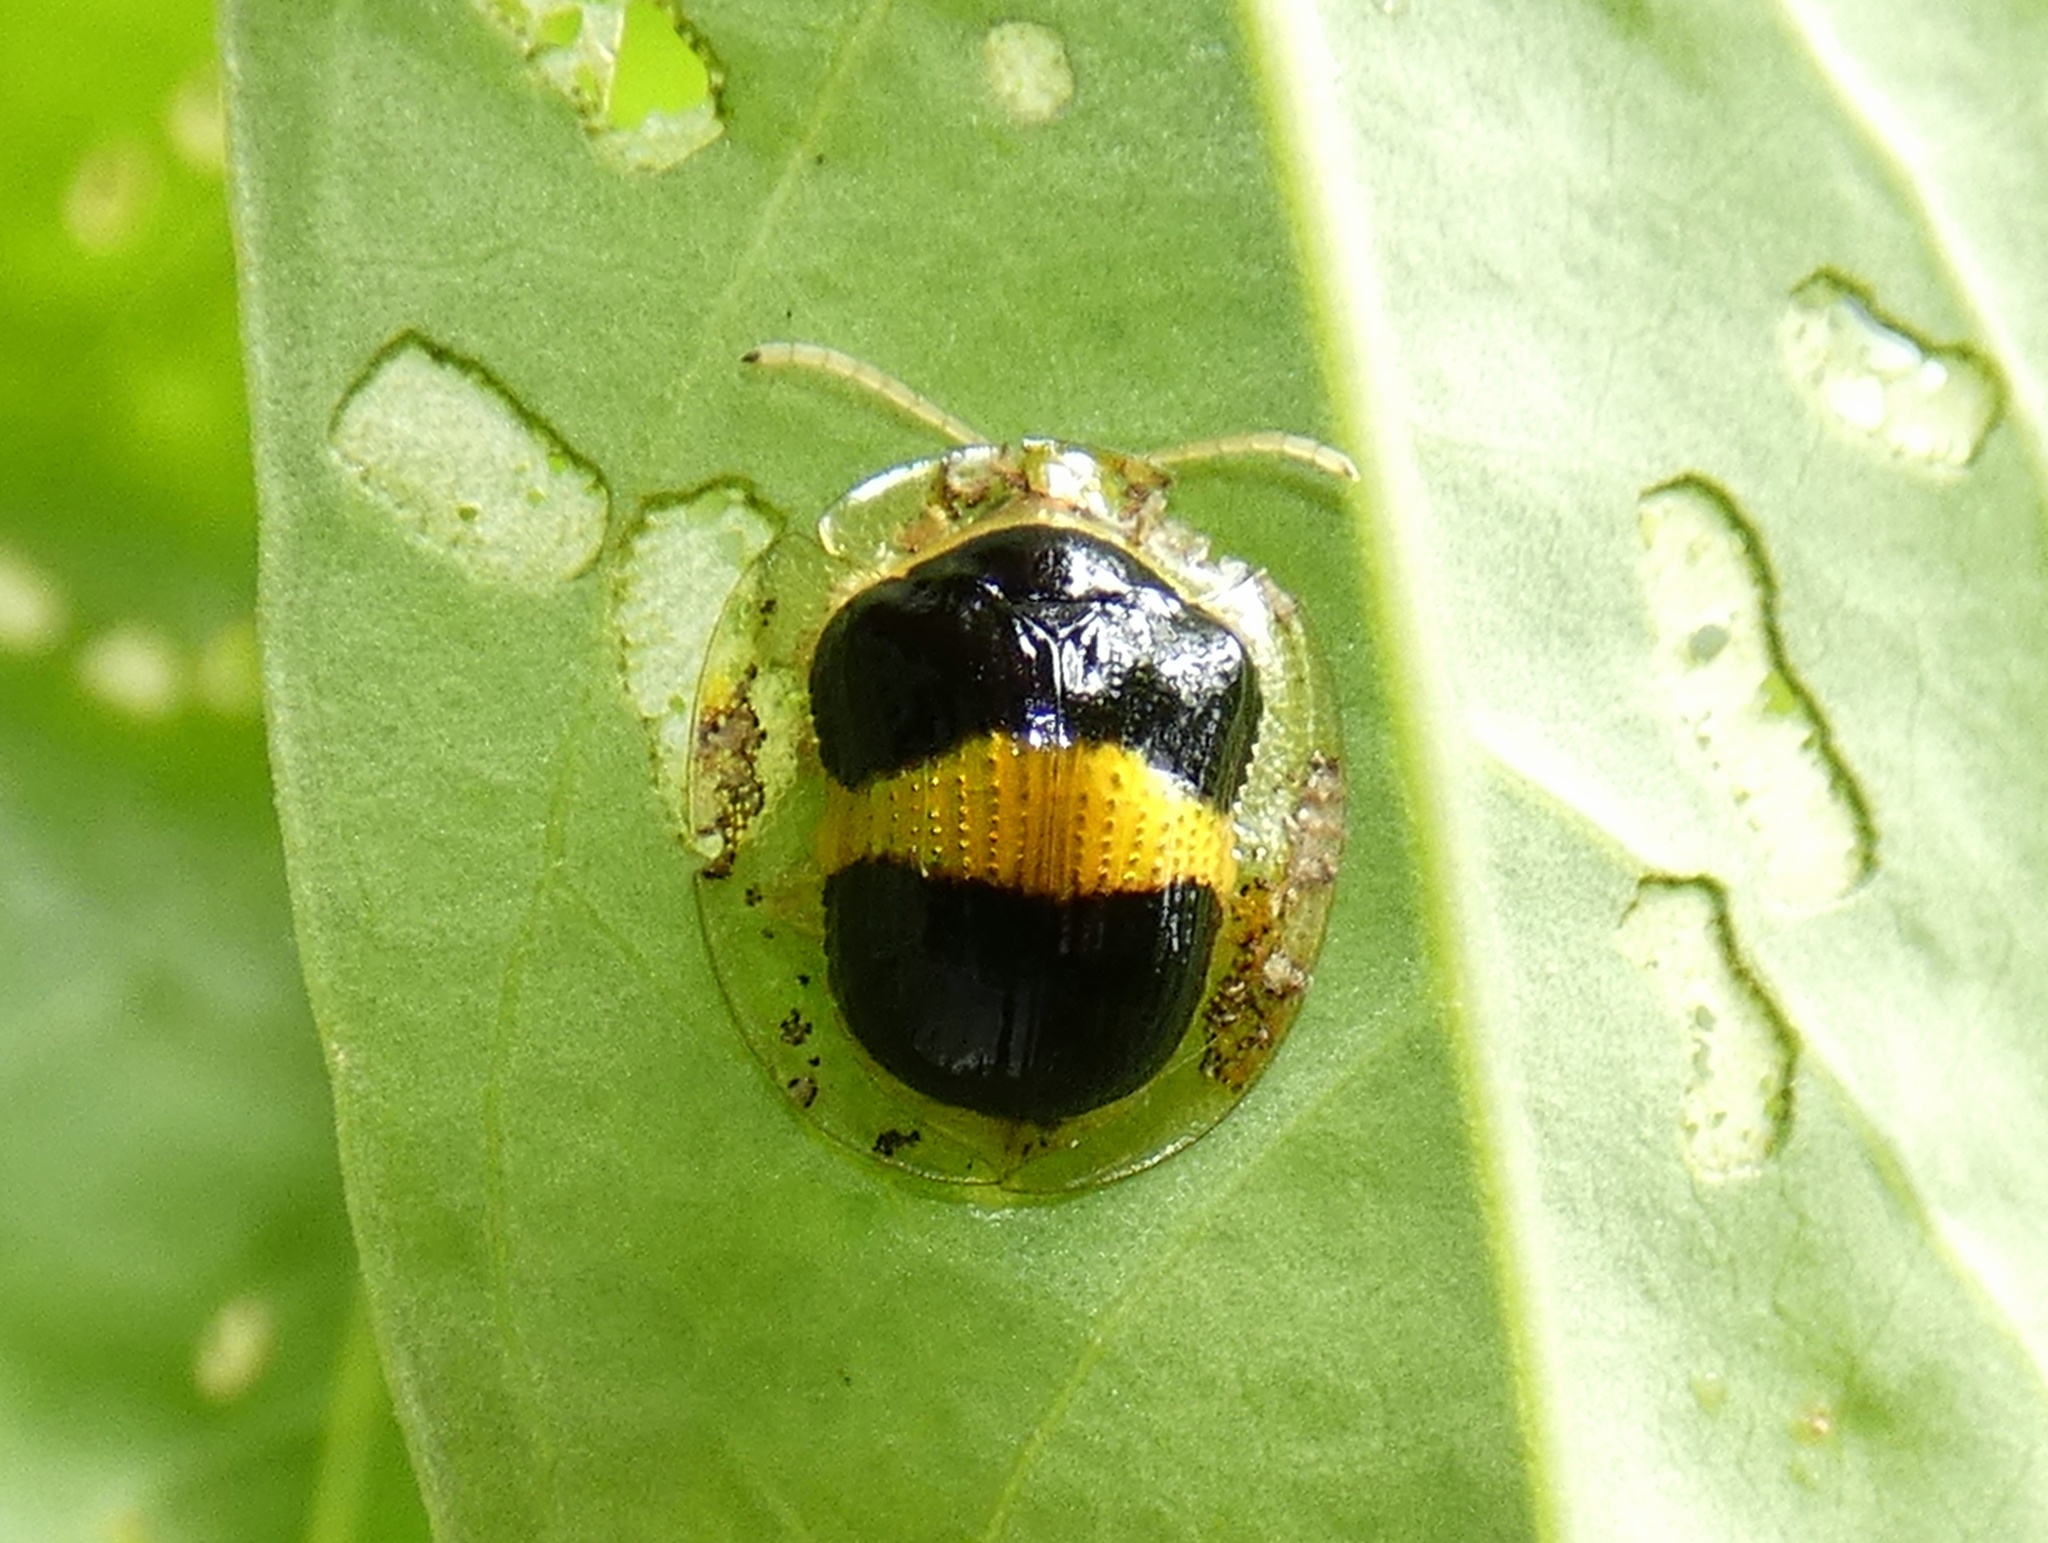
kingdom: Animalia
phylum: Arthropoda
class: Insecta
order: Coleoptera
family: Chrysomelidae
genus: Charidotis
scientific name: Charidotis leprieuri
